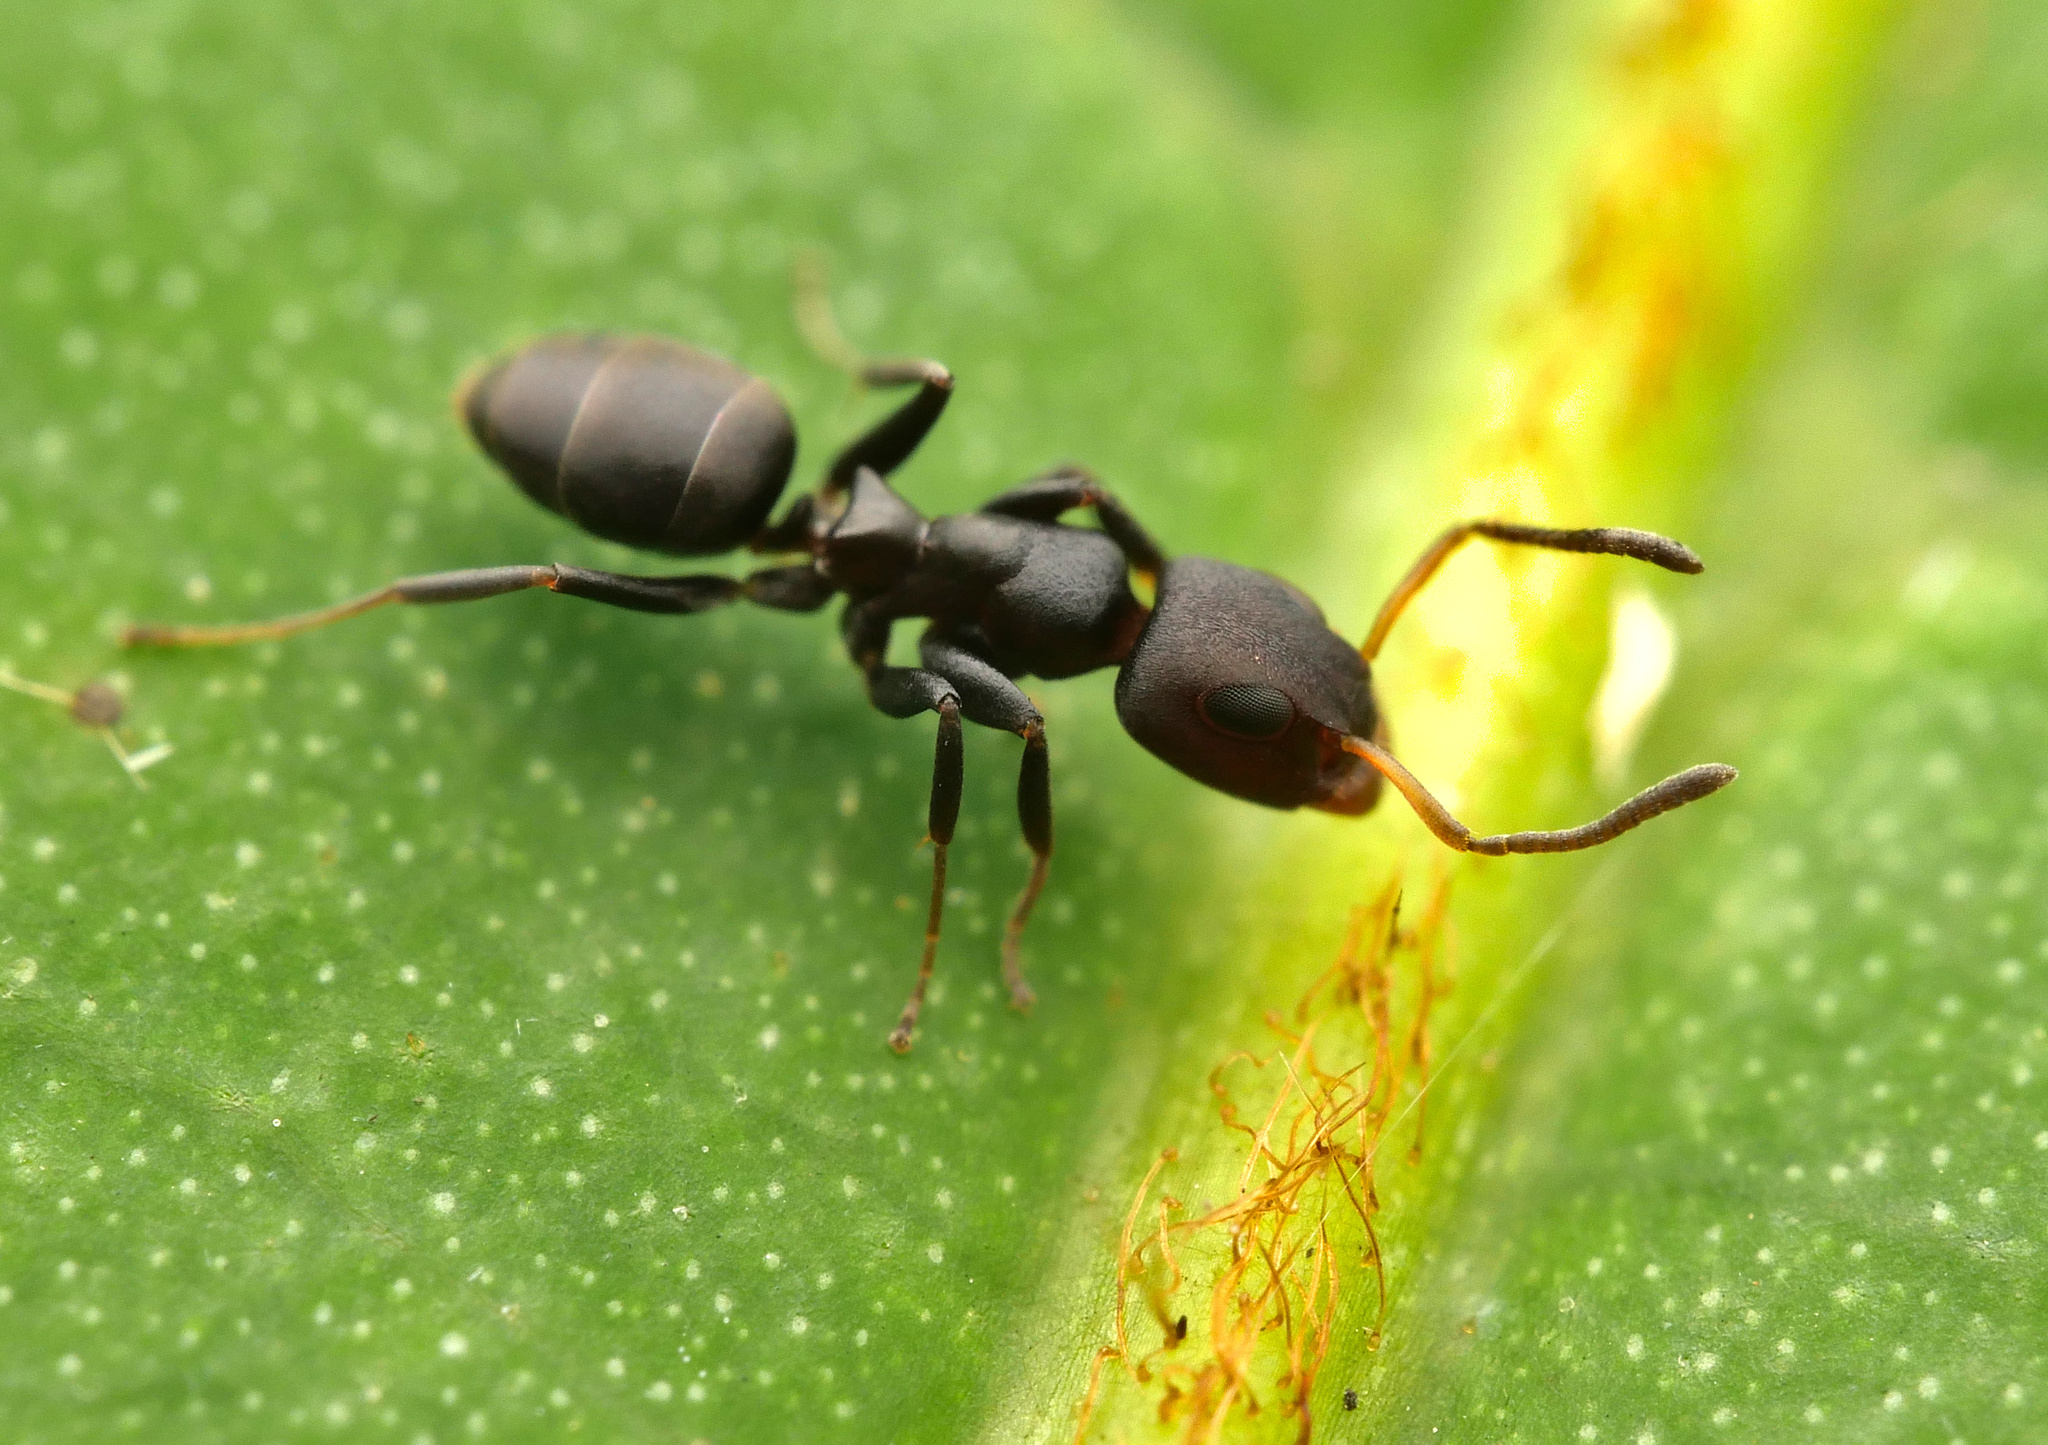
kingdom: Animalia
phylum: Arthropoda
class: Insecta
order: Hymenoptera
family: Formicidae
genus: Turneria
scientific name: Turneria dahlii
